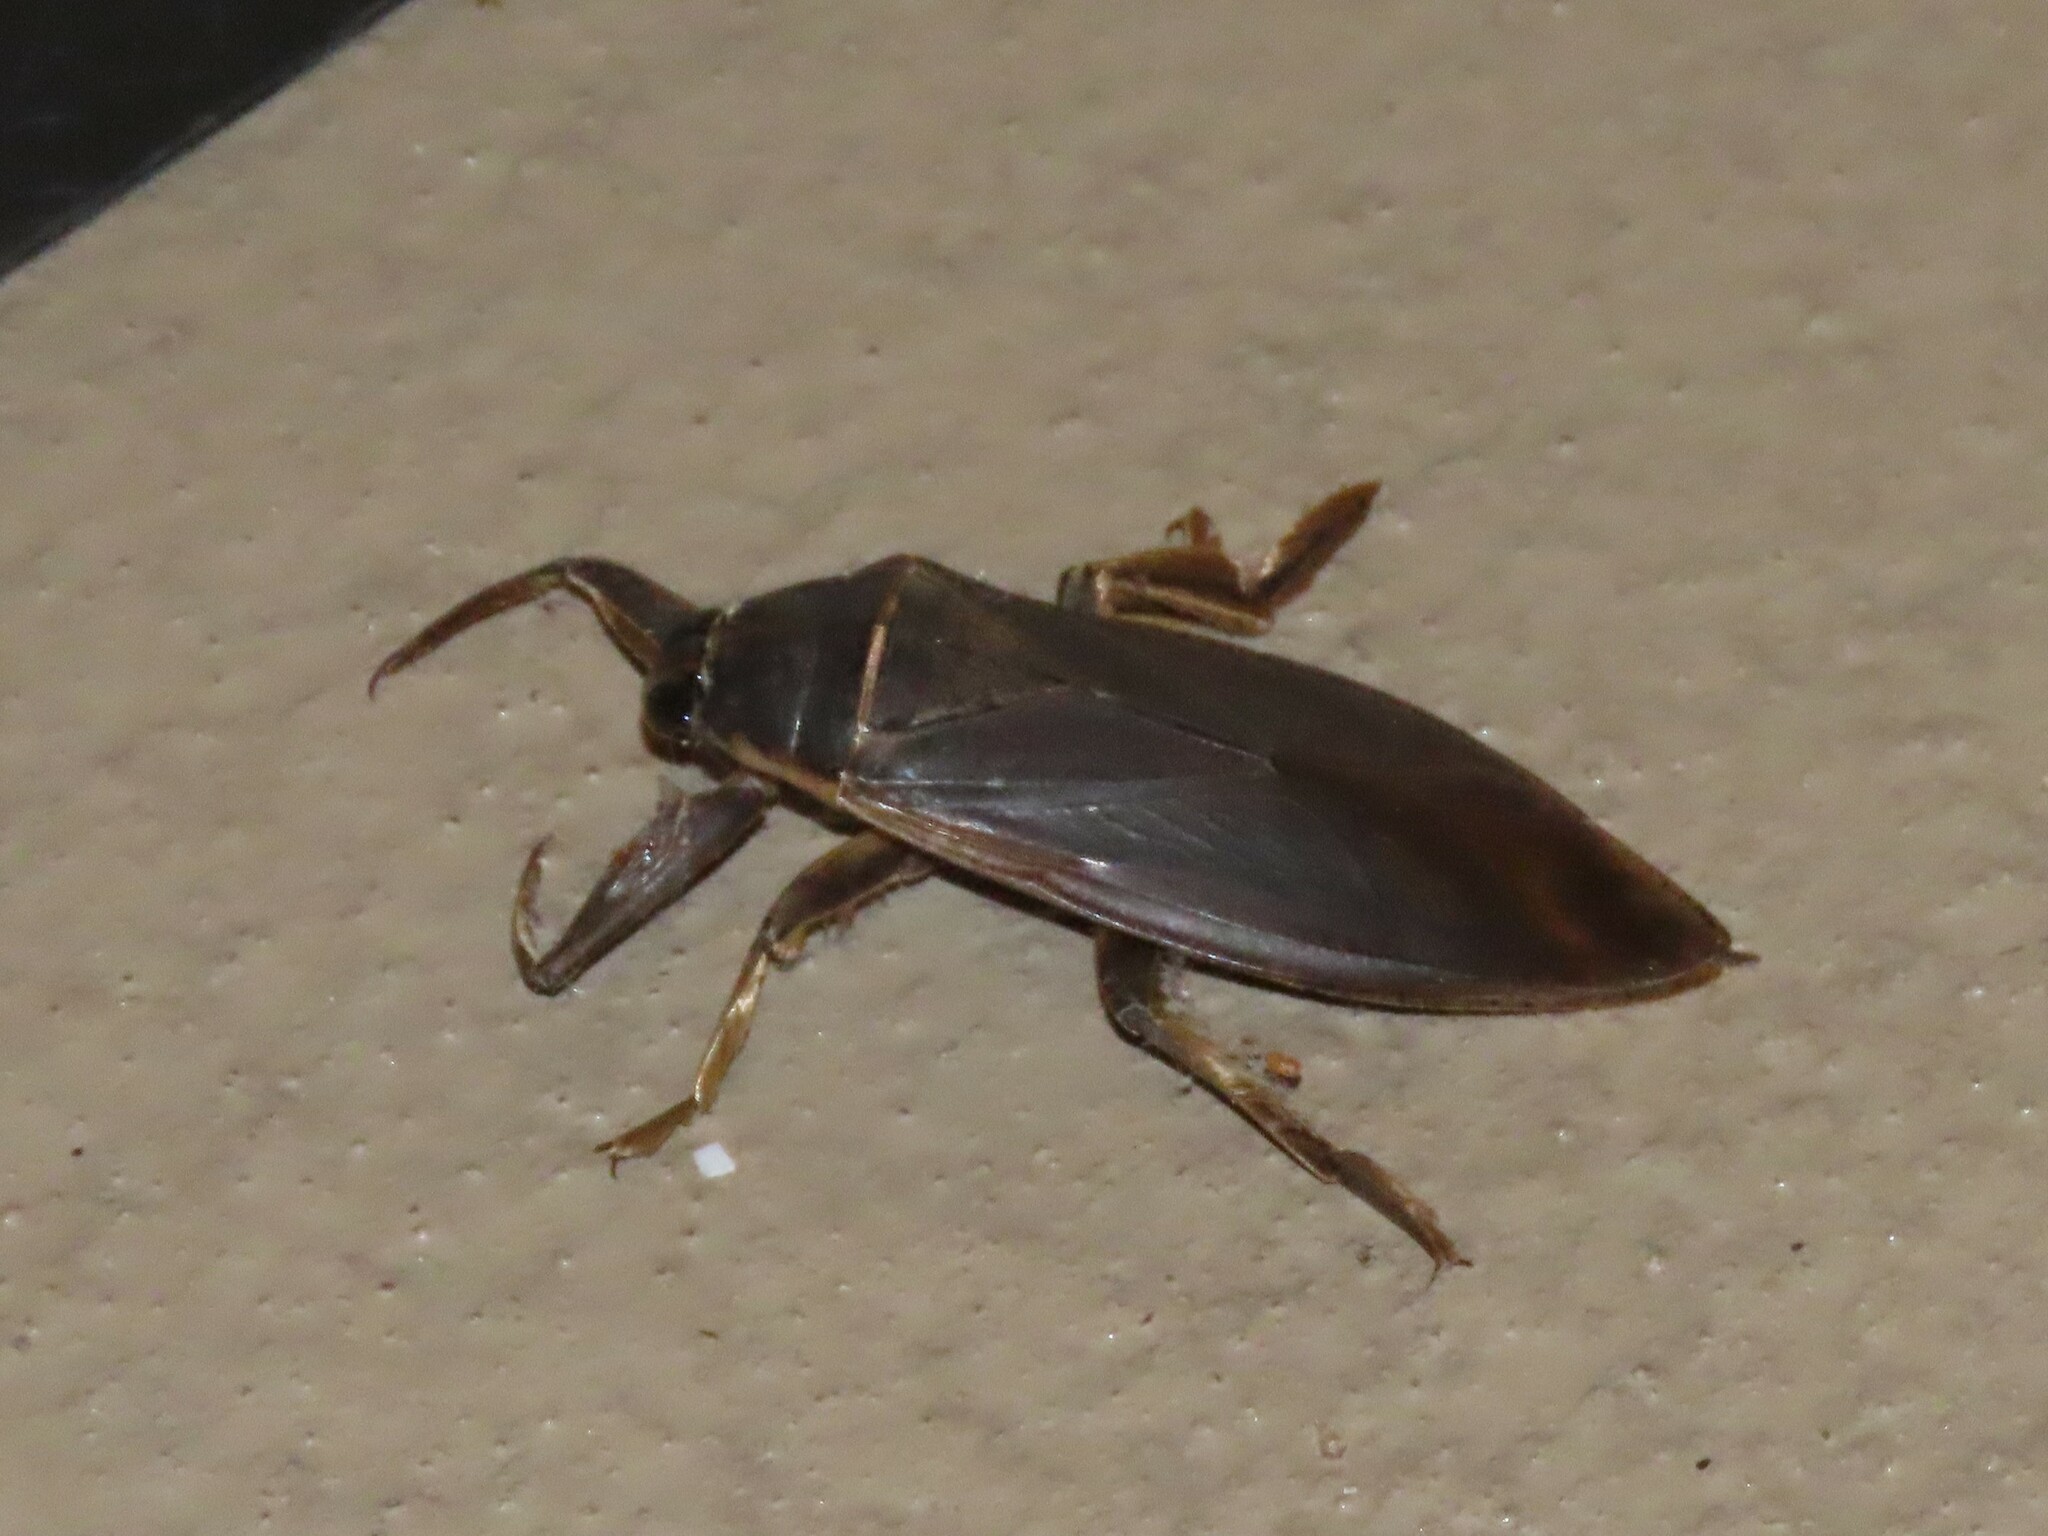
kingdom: Animalia
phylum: Arthropoda
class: Insecta
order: Hemiptera
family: Belostomatidae
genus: Benacus
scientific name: Benacus griseus
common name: Eastern toe-biter
